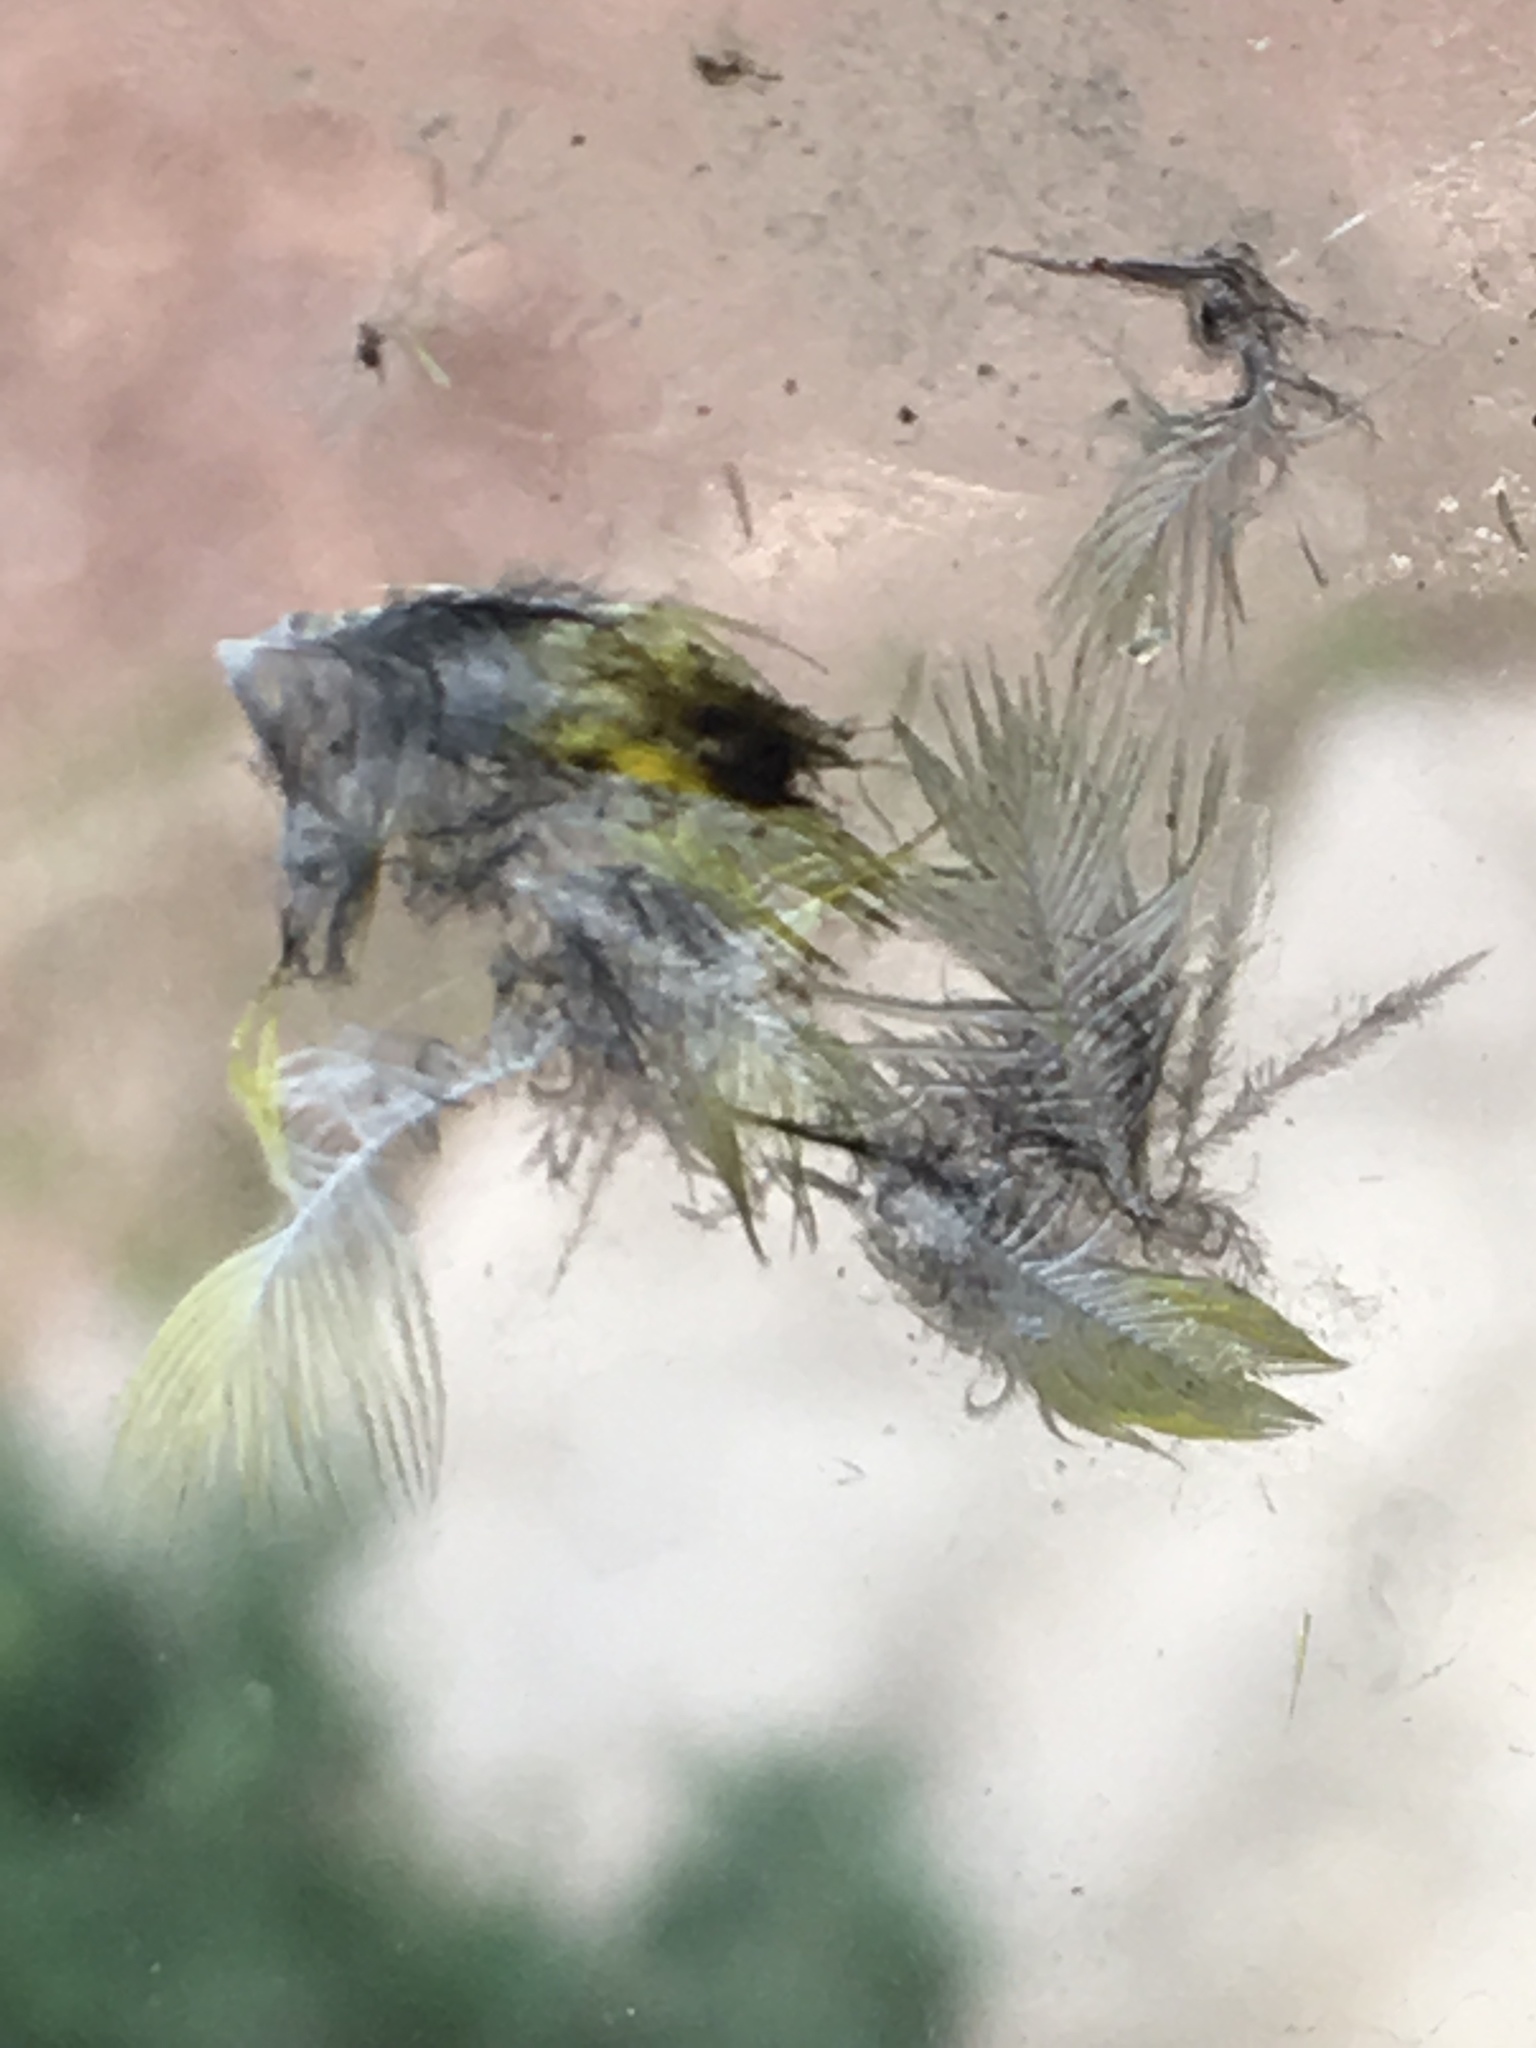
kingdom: Animalia
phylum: Chordata
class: Aves
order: Passeriformes
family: Fringillidae
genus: Spinus
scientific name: Spinus tristis
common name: American goldfinch
